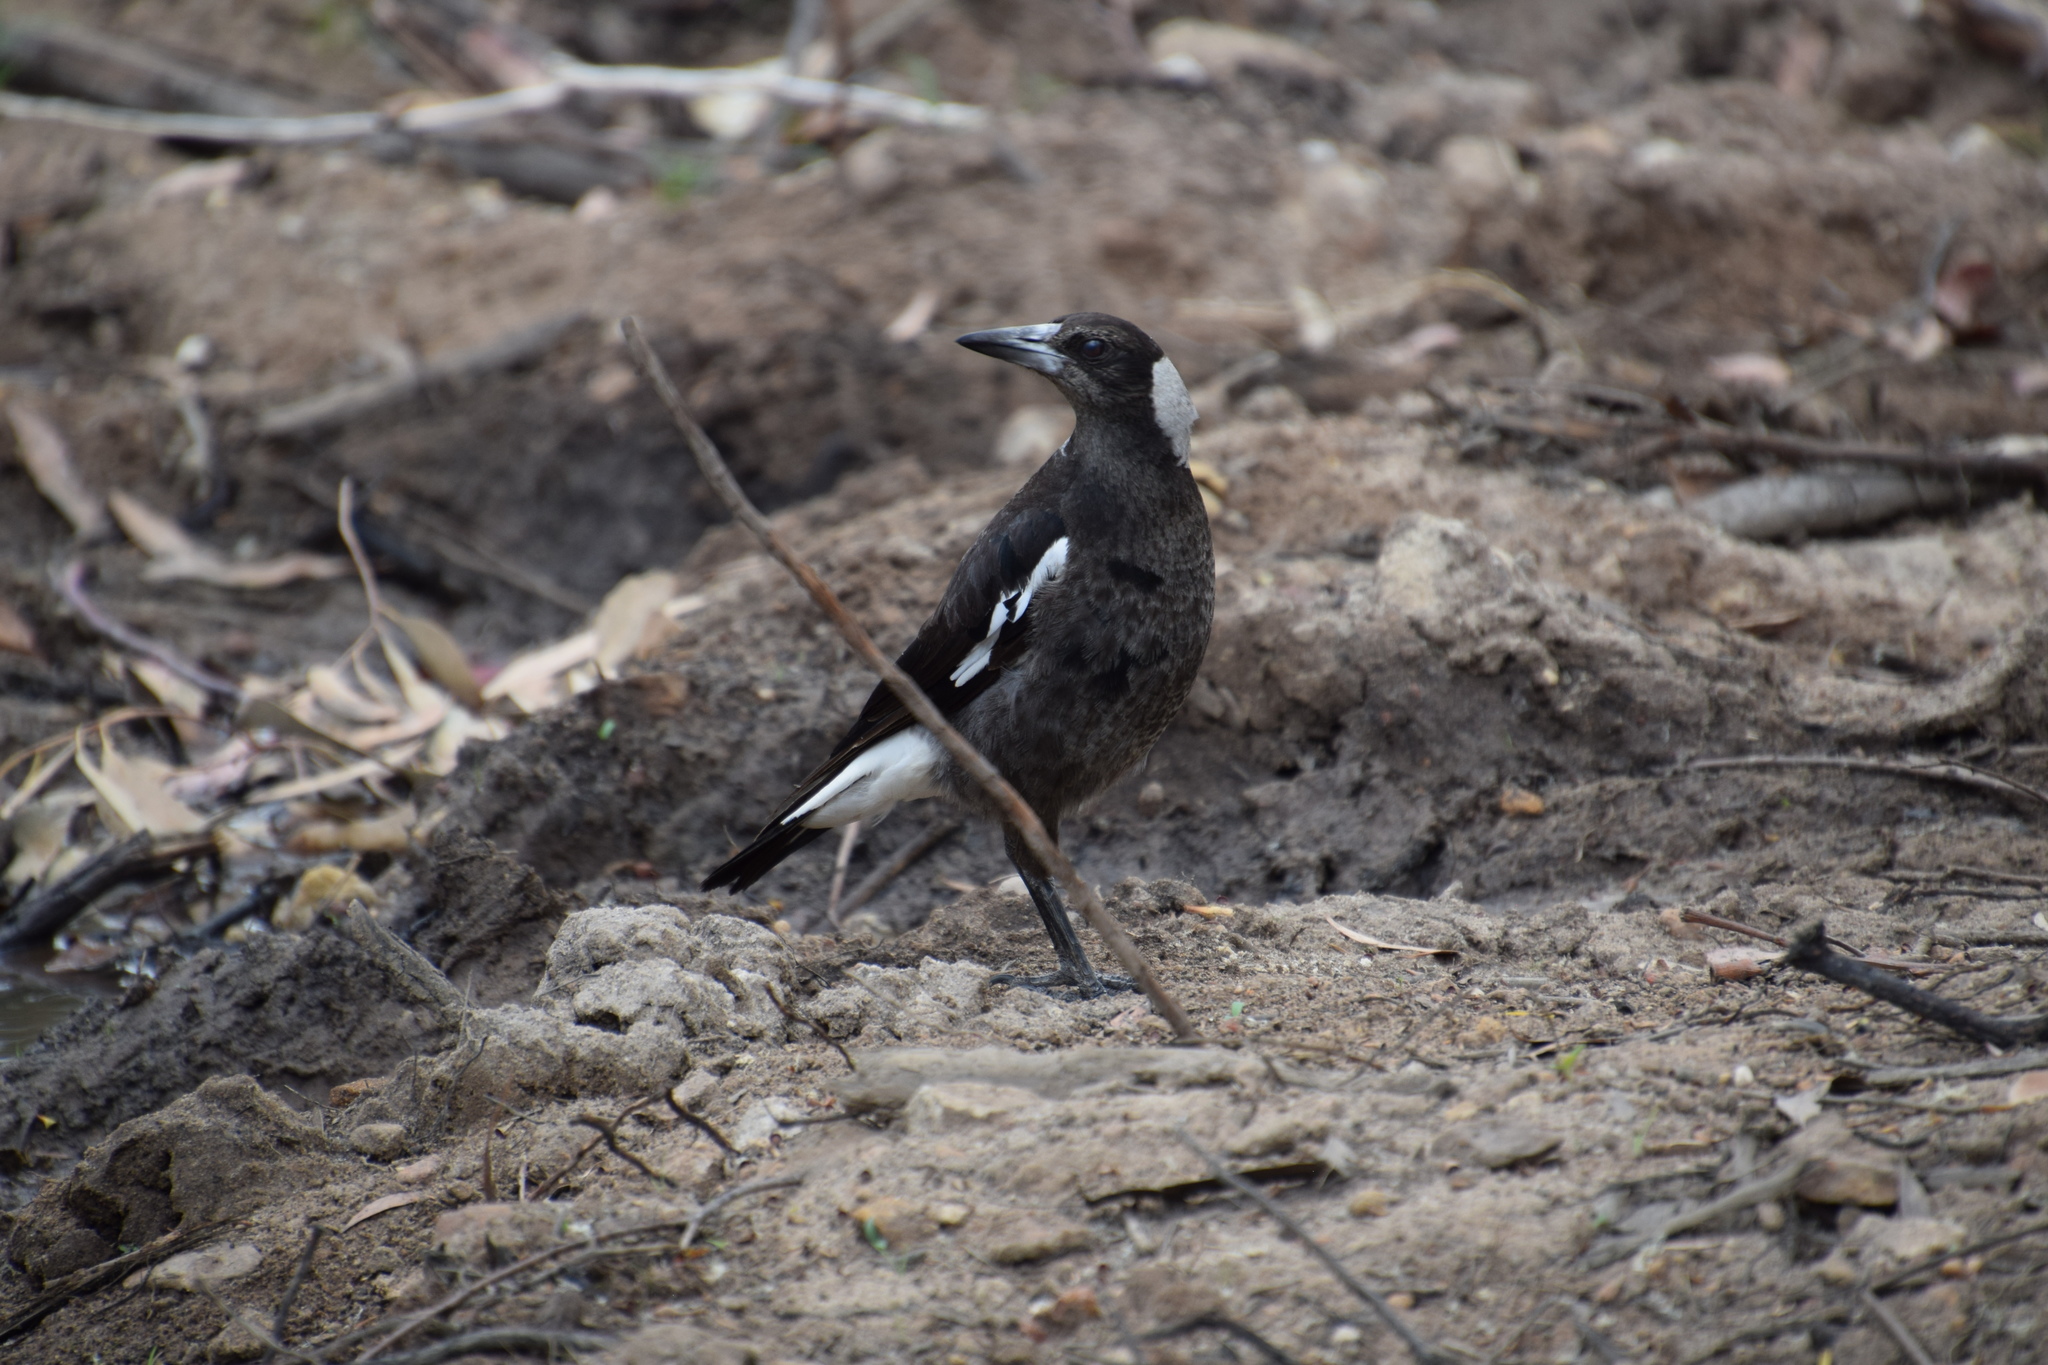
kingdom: Animalia
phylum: Chordata
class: Aves
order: Passeriformes
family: Cracticidae
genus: Gymnorhina
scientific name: Gymnorhina tibicen
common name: Australian magpie
